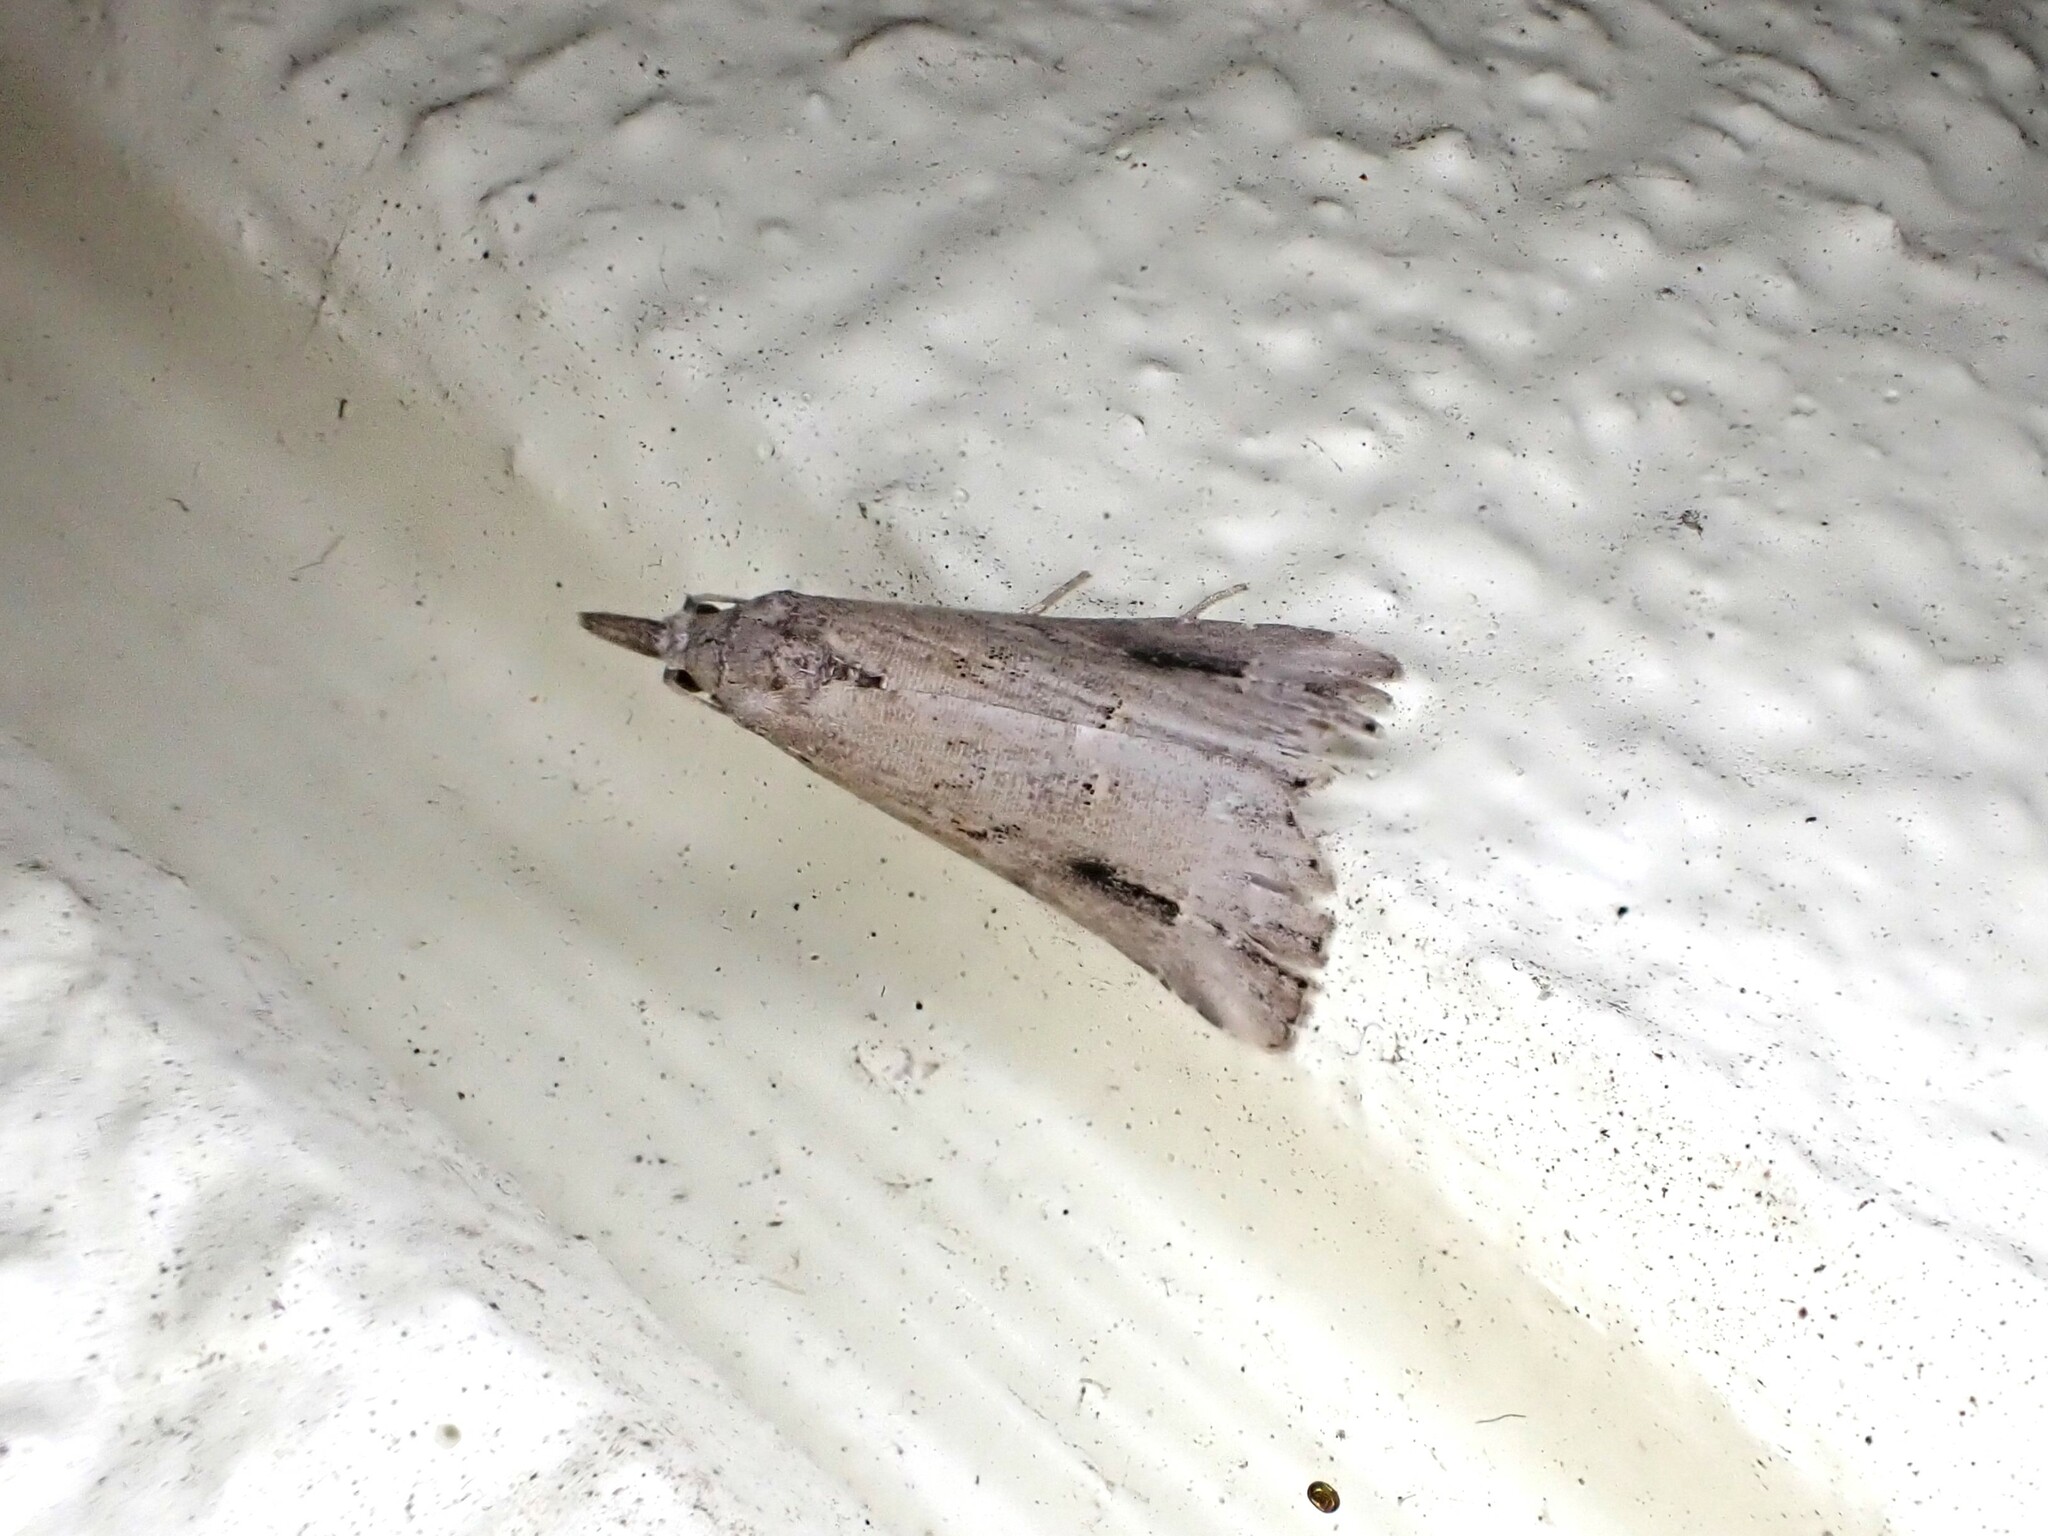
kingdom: Animalia
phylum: Arthropoda
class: Insecta
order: Lepidoptera
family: Erebidae
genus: Schrankia
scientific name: Schrankia costaestrigalis
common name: Pinion-streaked snout
